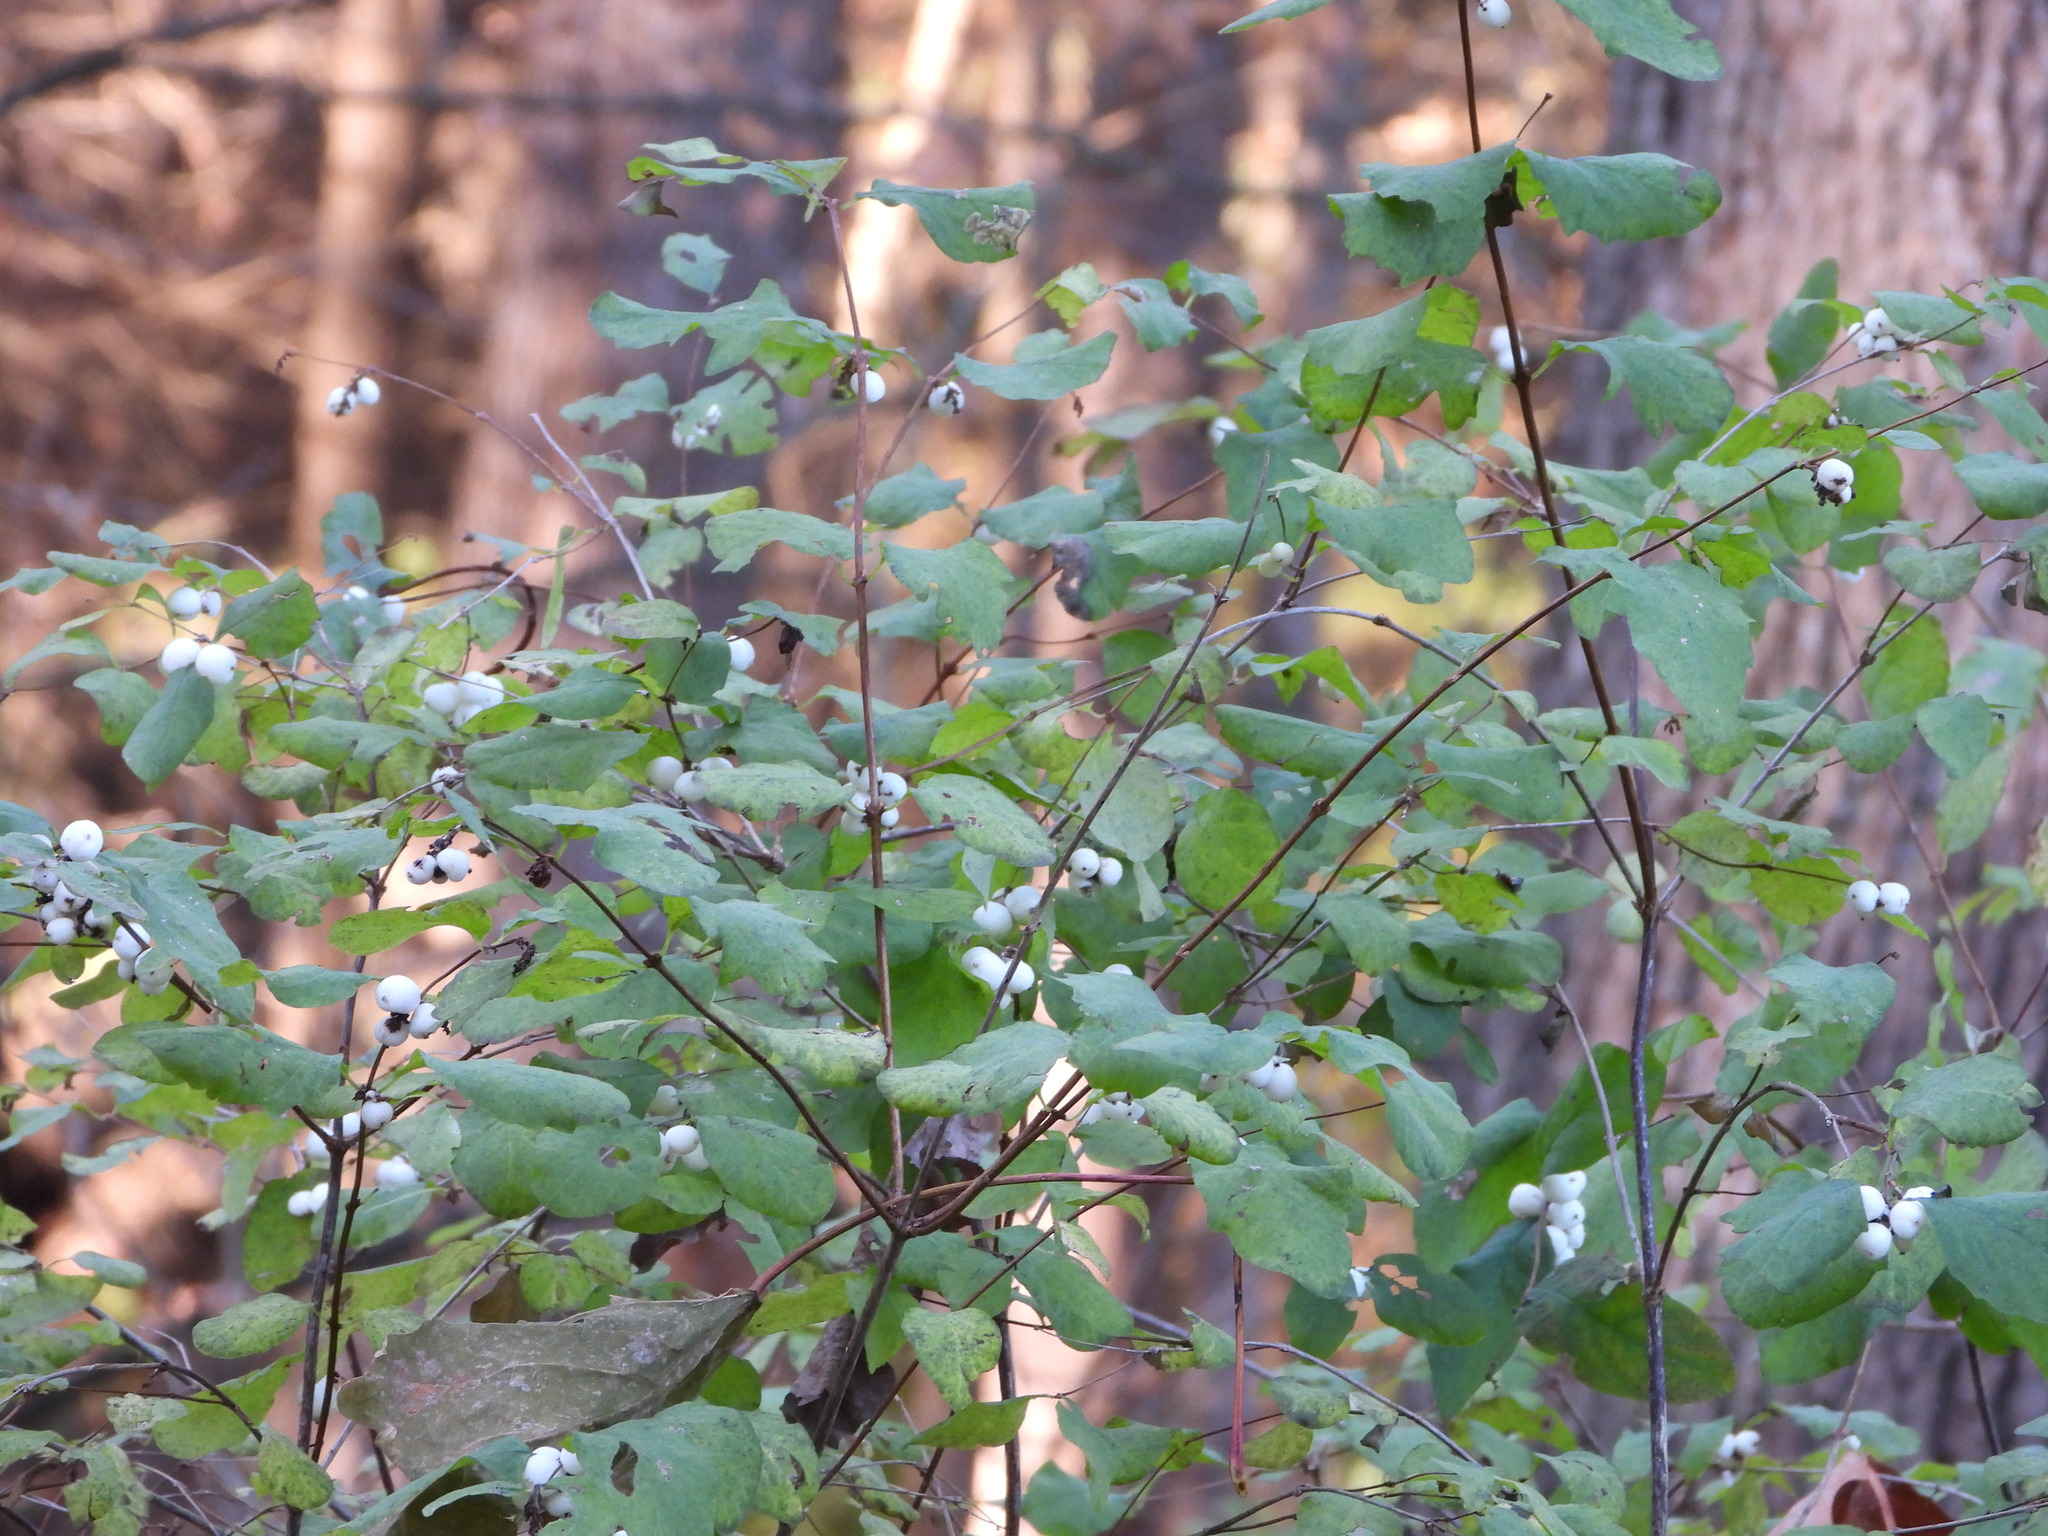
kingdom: Plantae
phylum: Tracheophyta
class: Magnoliopsida
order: Dipsacales
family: Caprifoliaceae
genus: Symphoricarpos
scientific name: Symphoricarpos albus
